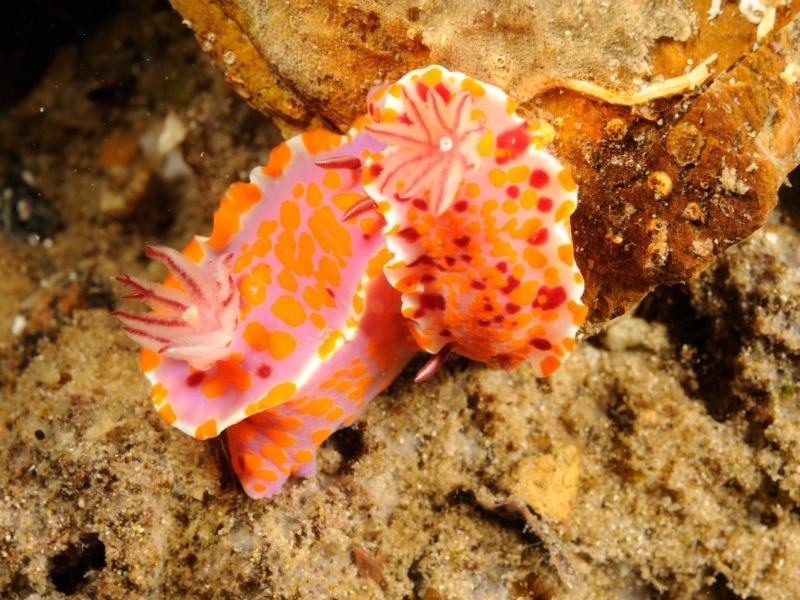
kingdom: Animalia
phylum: Mollusca
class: Gastropoda
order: Nudibranchia
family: Chromodorididae
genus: Ceratosoma
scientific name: Ceratosoma amoenum
